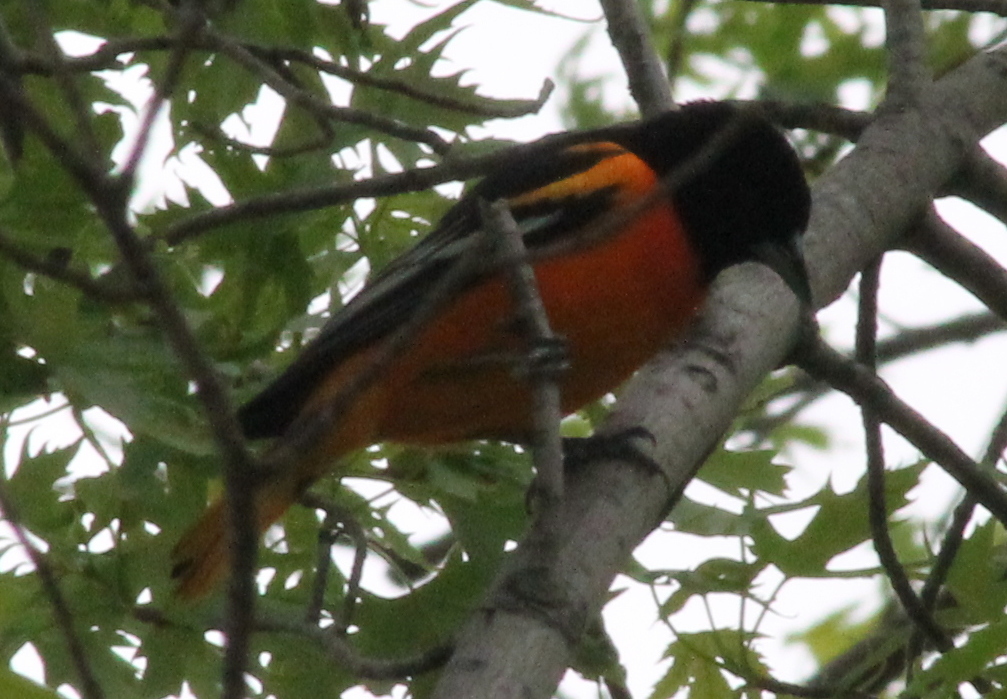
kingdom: Animalia
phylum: Chordata
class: Aves
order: Passeriformes
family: Icteridae
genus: Icterus
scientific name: Icterus galbula
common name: Baltimore oriole
